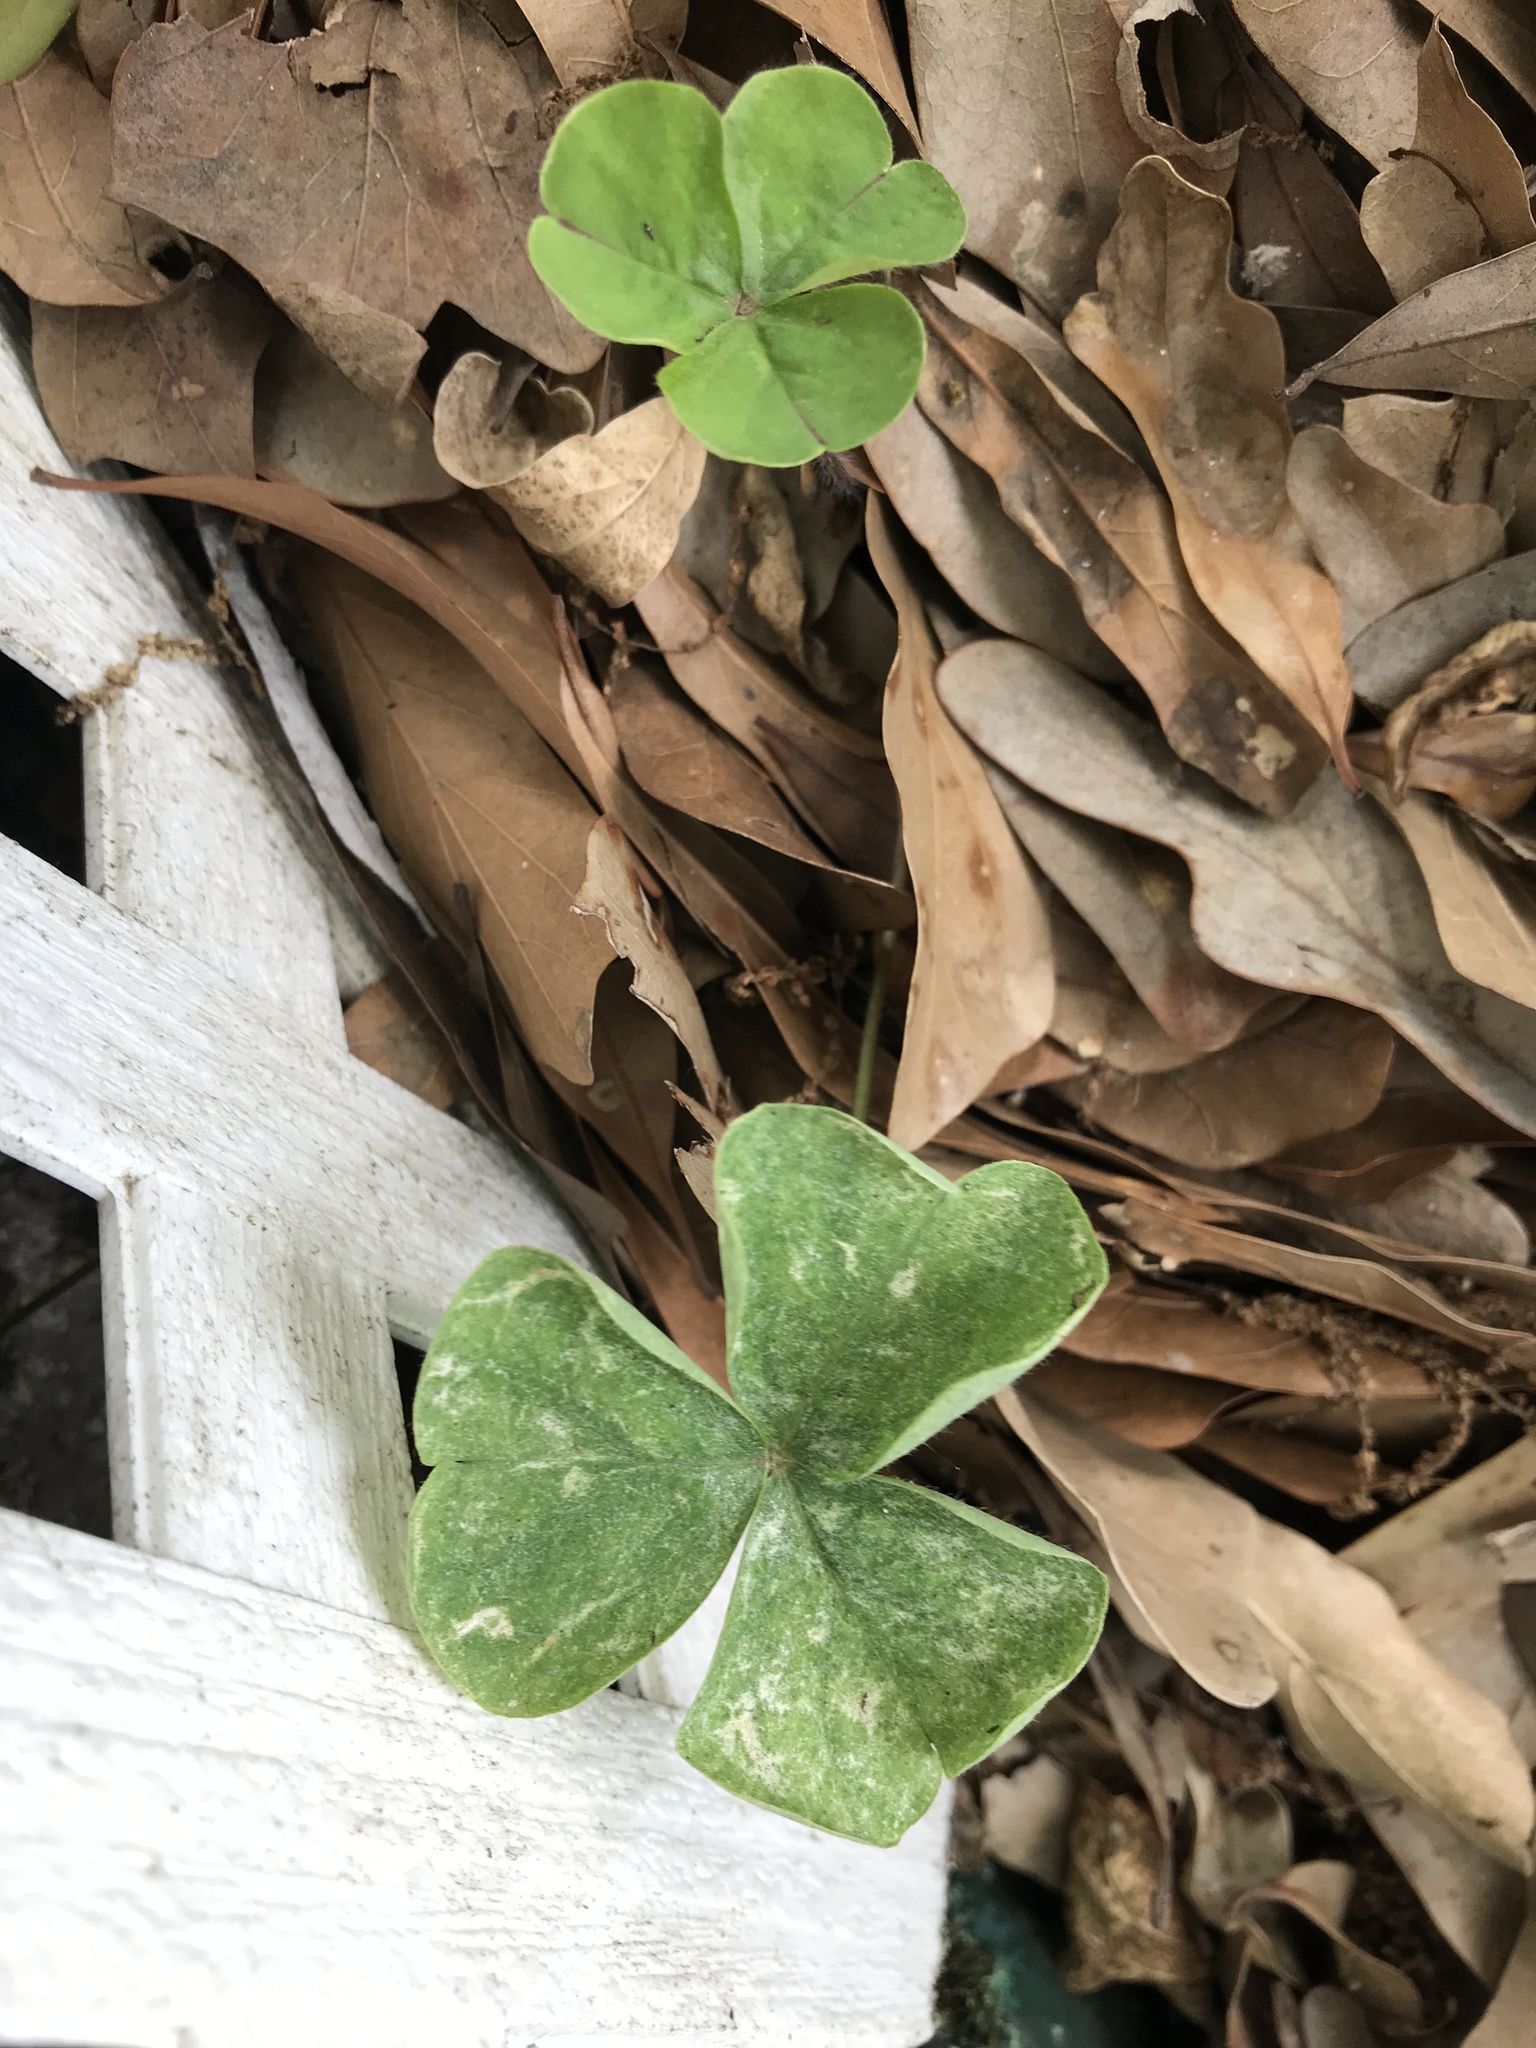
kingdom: Plantae
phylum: Tracheophyta
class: Magnoliopsida
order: Oxalidales
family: Oxalidaceae
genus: Oxalis
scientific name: Oxalis debilis
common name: Large-flowered pink-sorrel
